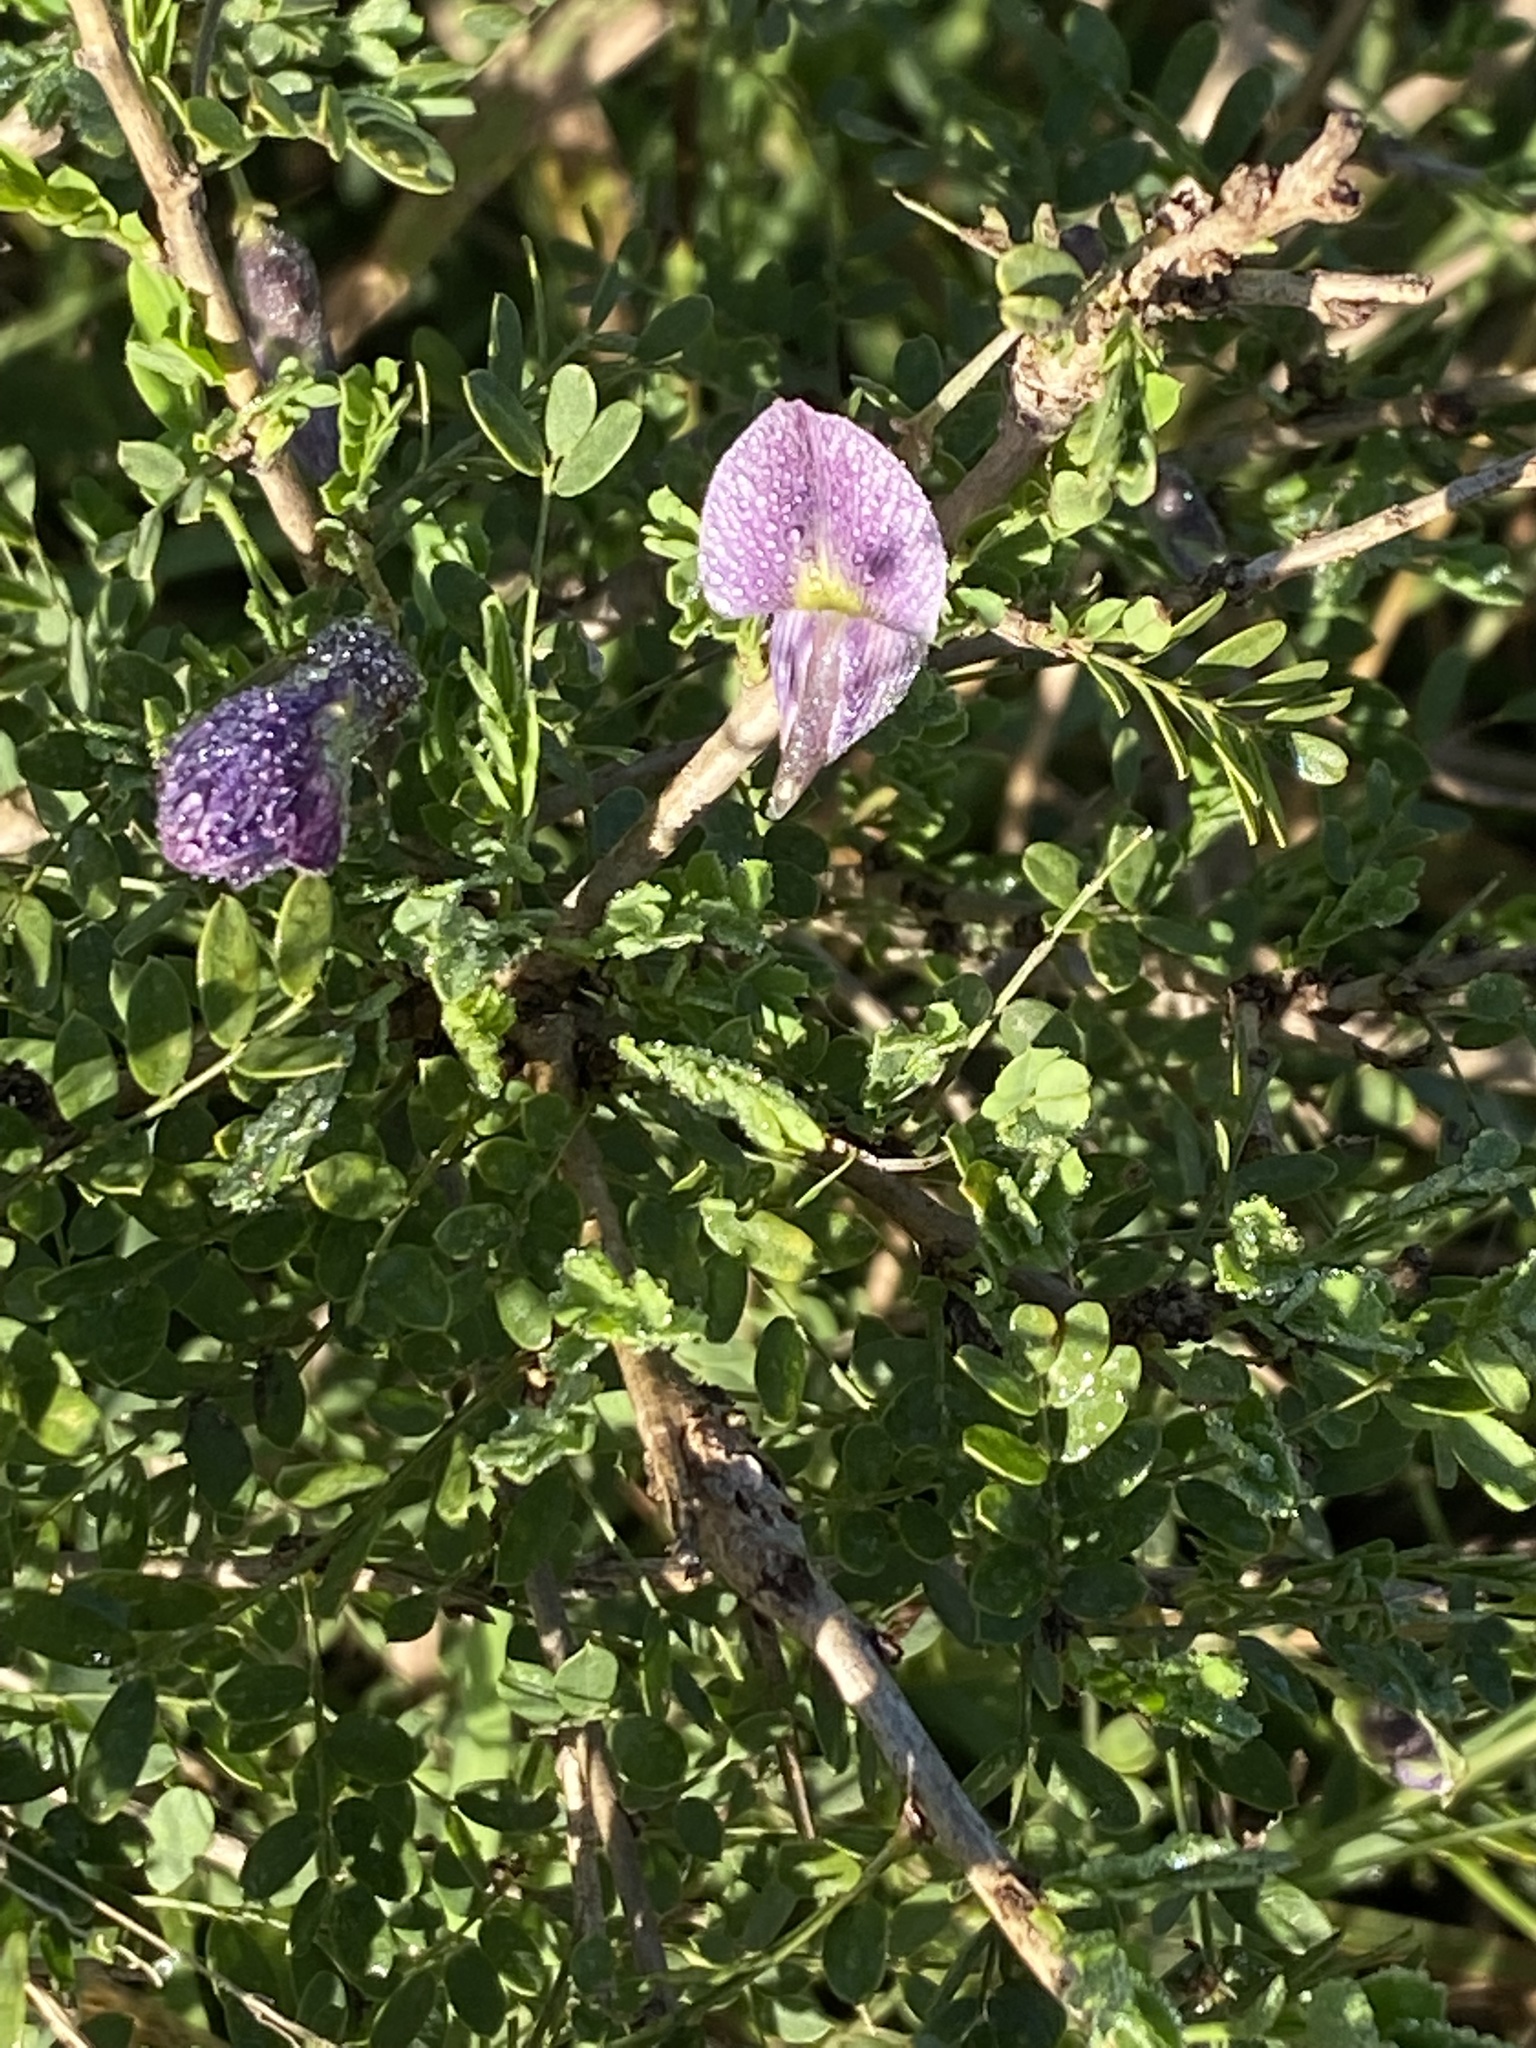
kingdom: Plantae
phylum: Tracheophyta
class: Magnoliopsida
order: Fabales
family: Fabaceae
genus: Ormocarpum
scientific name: Ormocarpum trichocarpum
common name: Caterpillar bush
